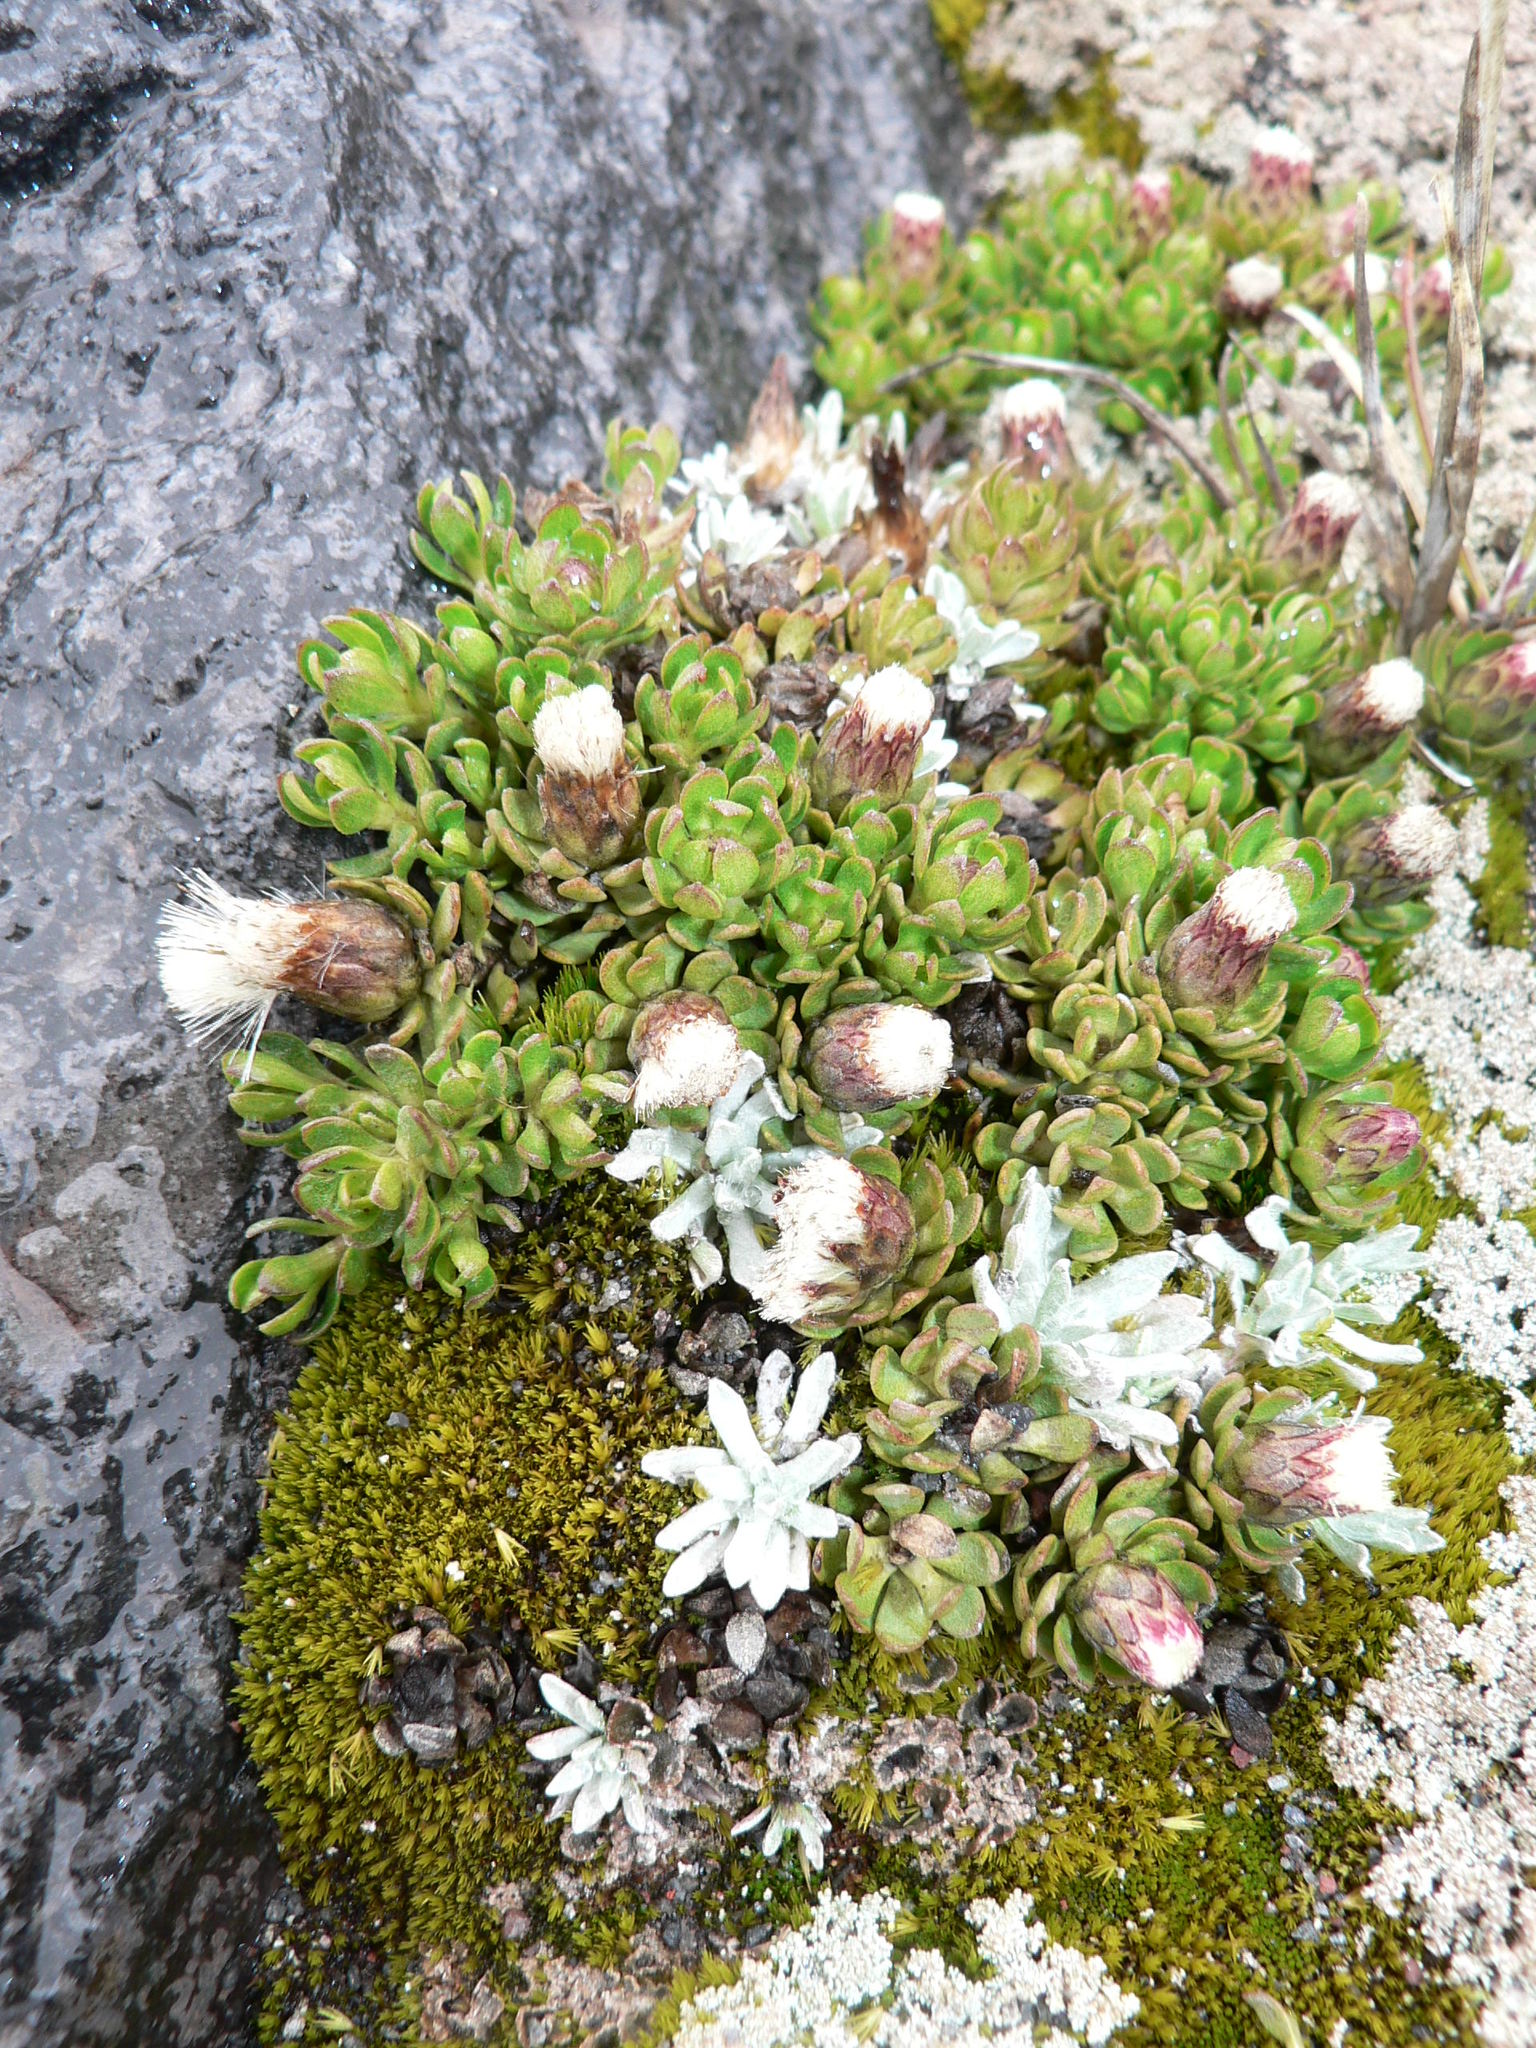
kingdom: Plantae
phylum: Tracheophyta
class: Magnoliopsida
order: Asterales
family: Asteraceae
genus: Baccharis
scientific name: Baccharis caespitosa
